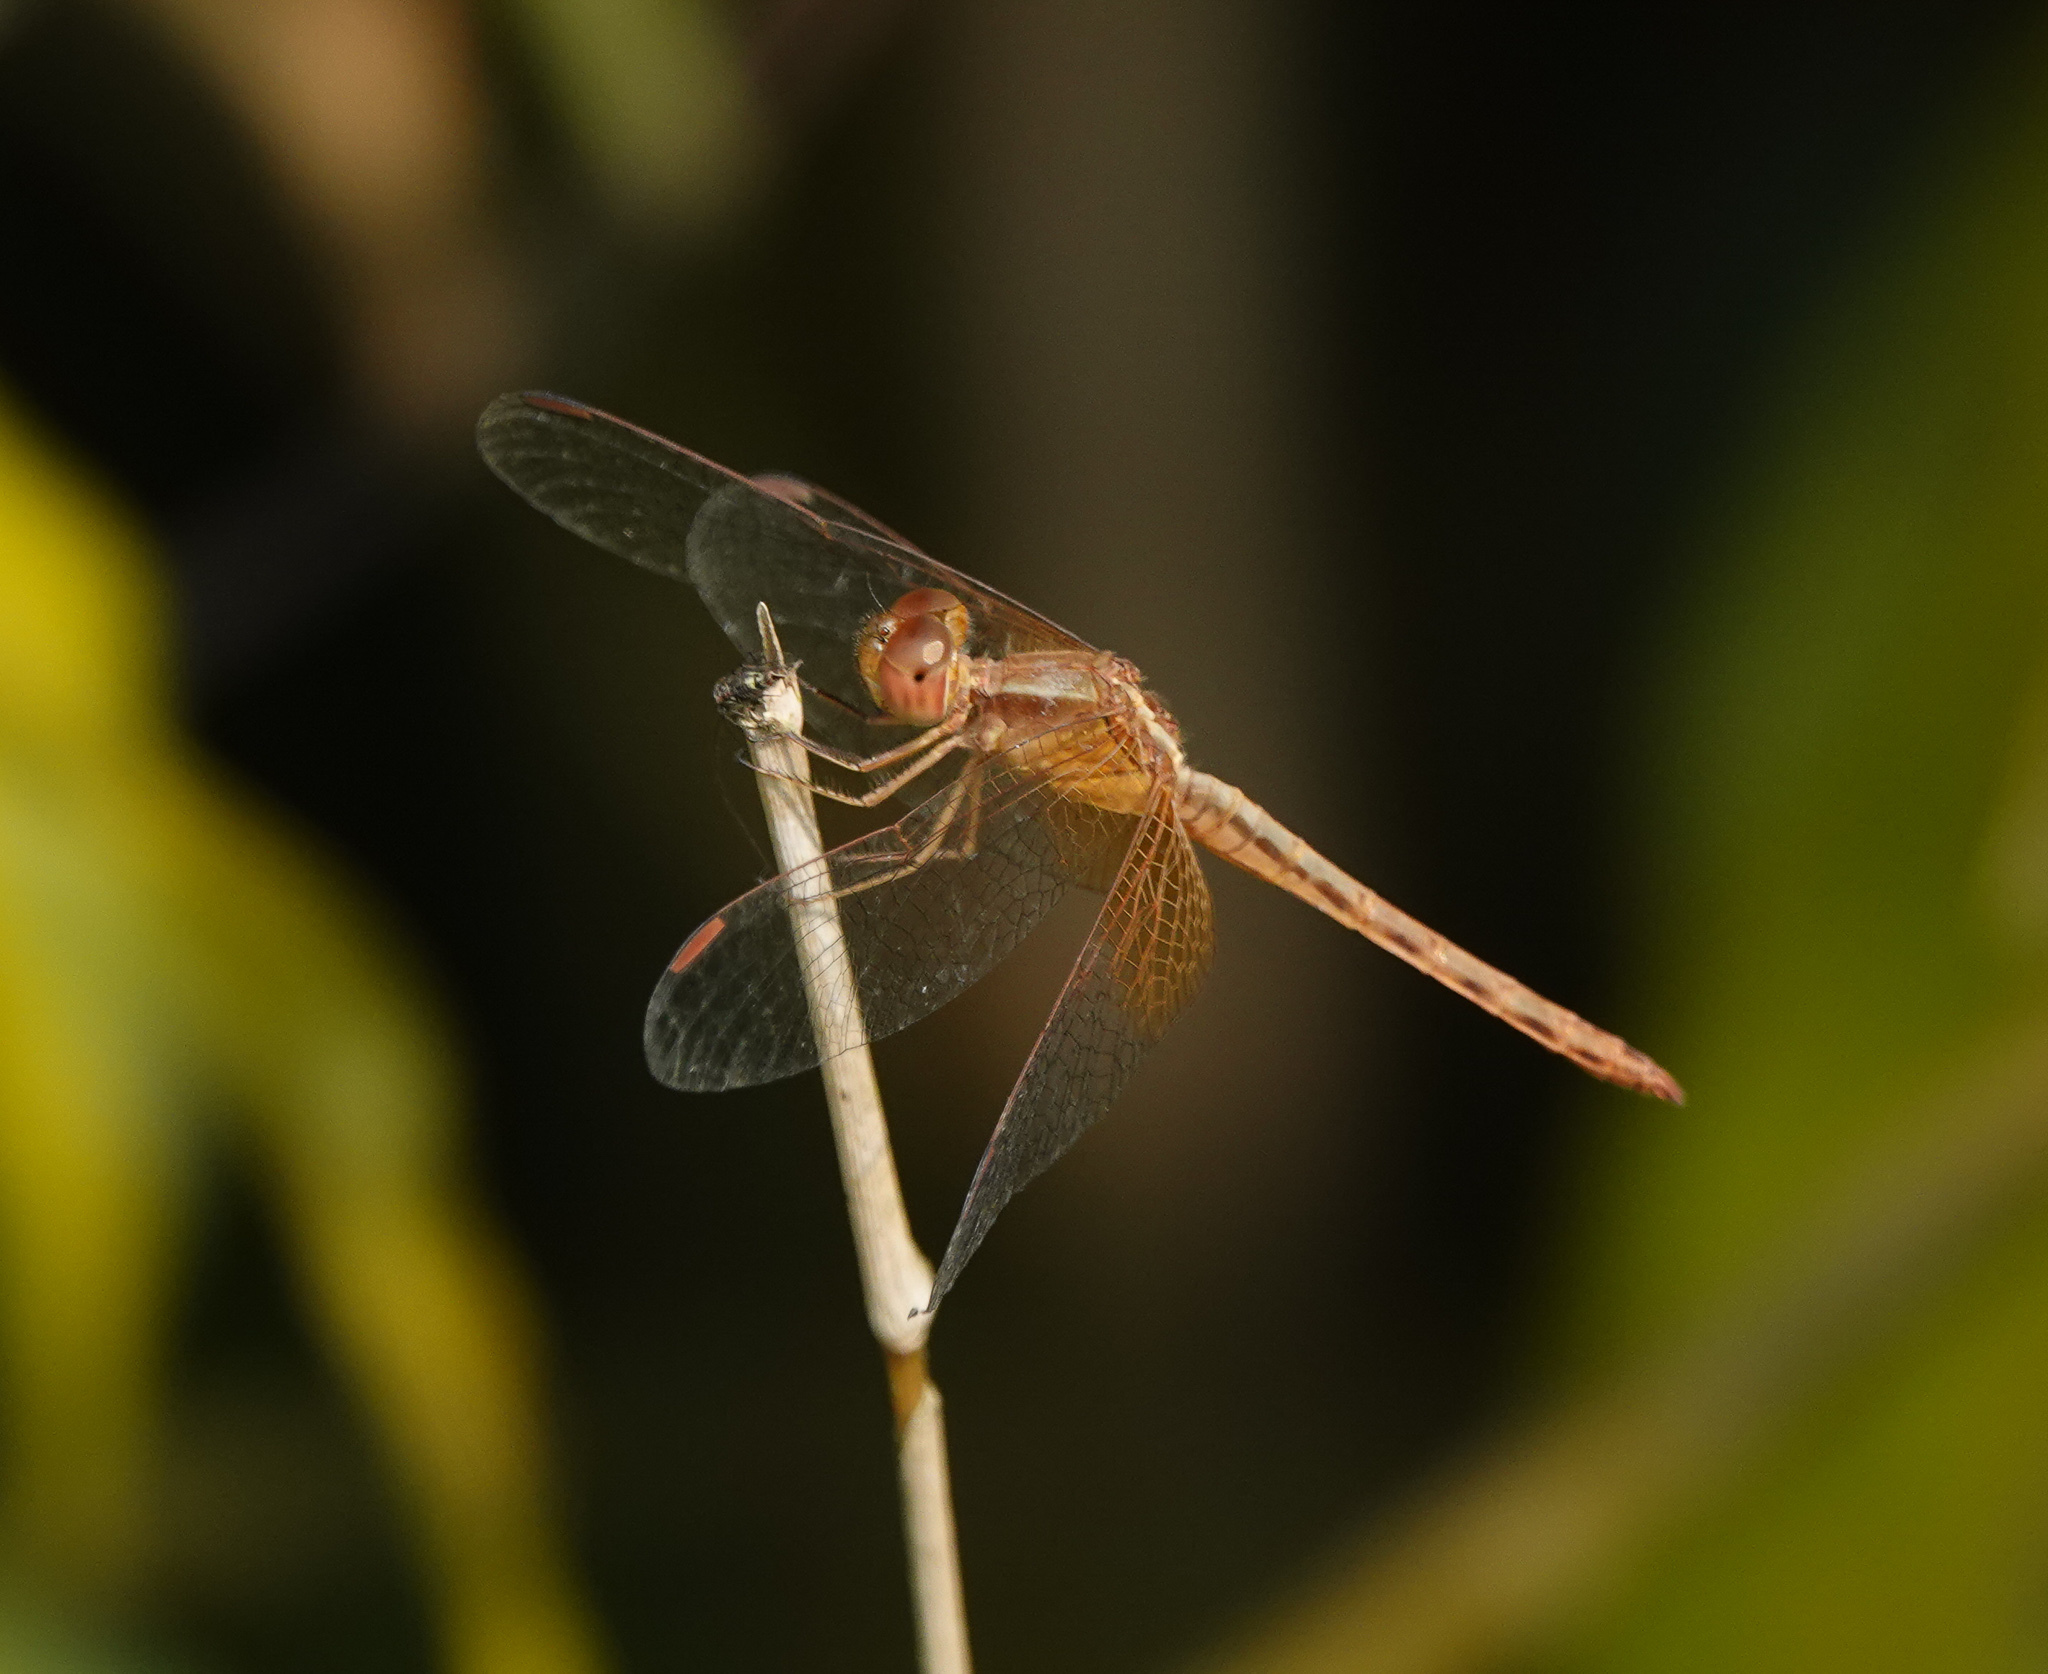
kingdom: Animalia
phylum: Arthropoda
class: Insecta
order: Odonata
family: Libellulidae
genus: Neurothemis
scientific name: Neurothemis intermedia
